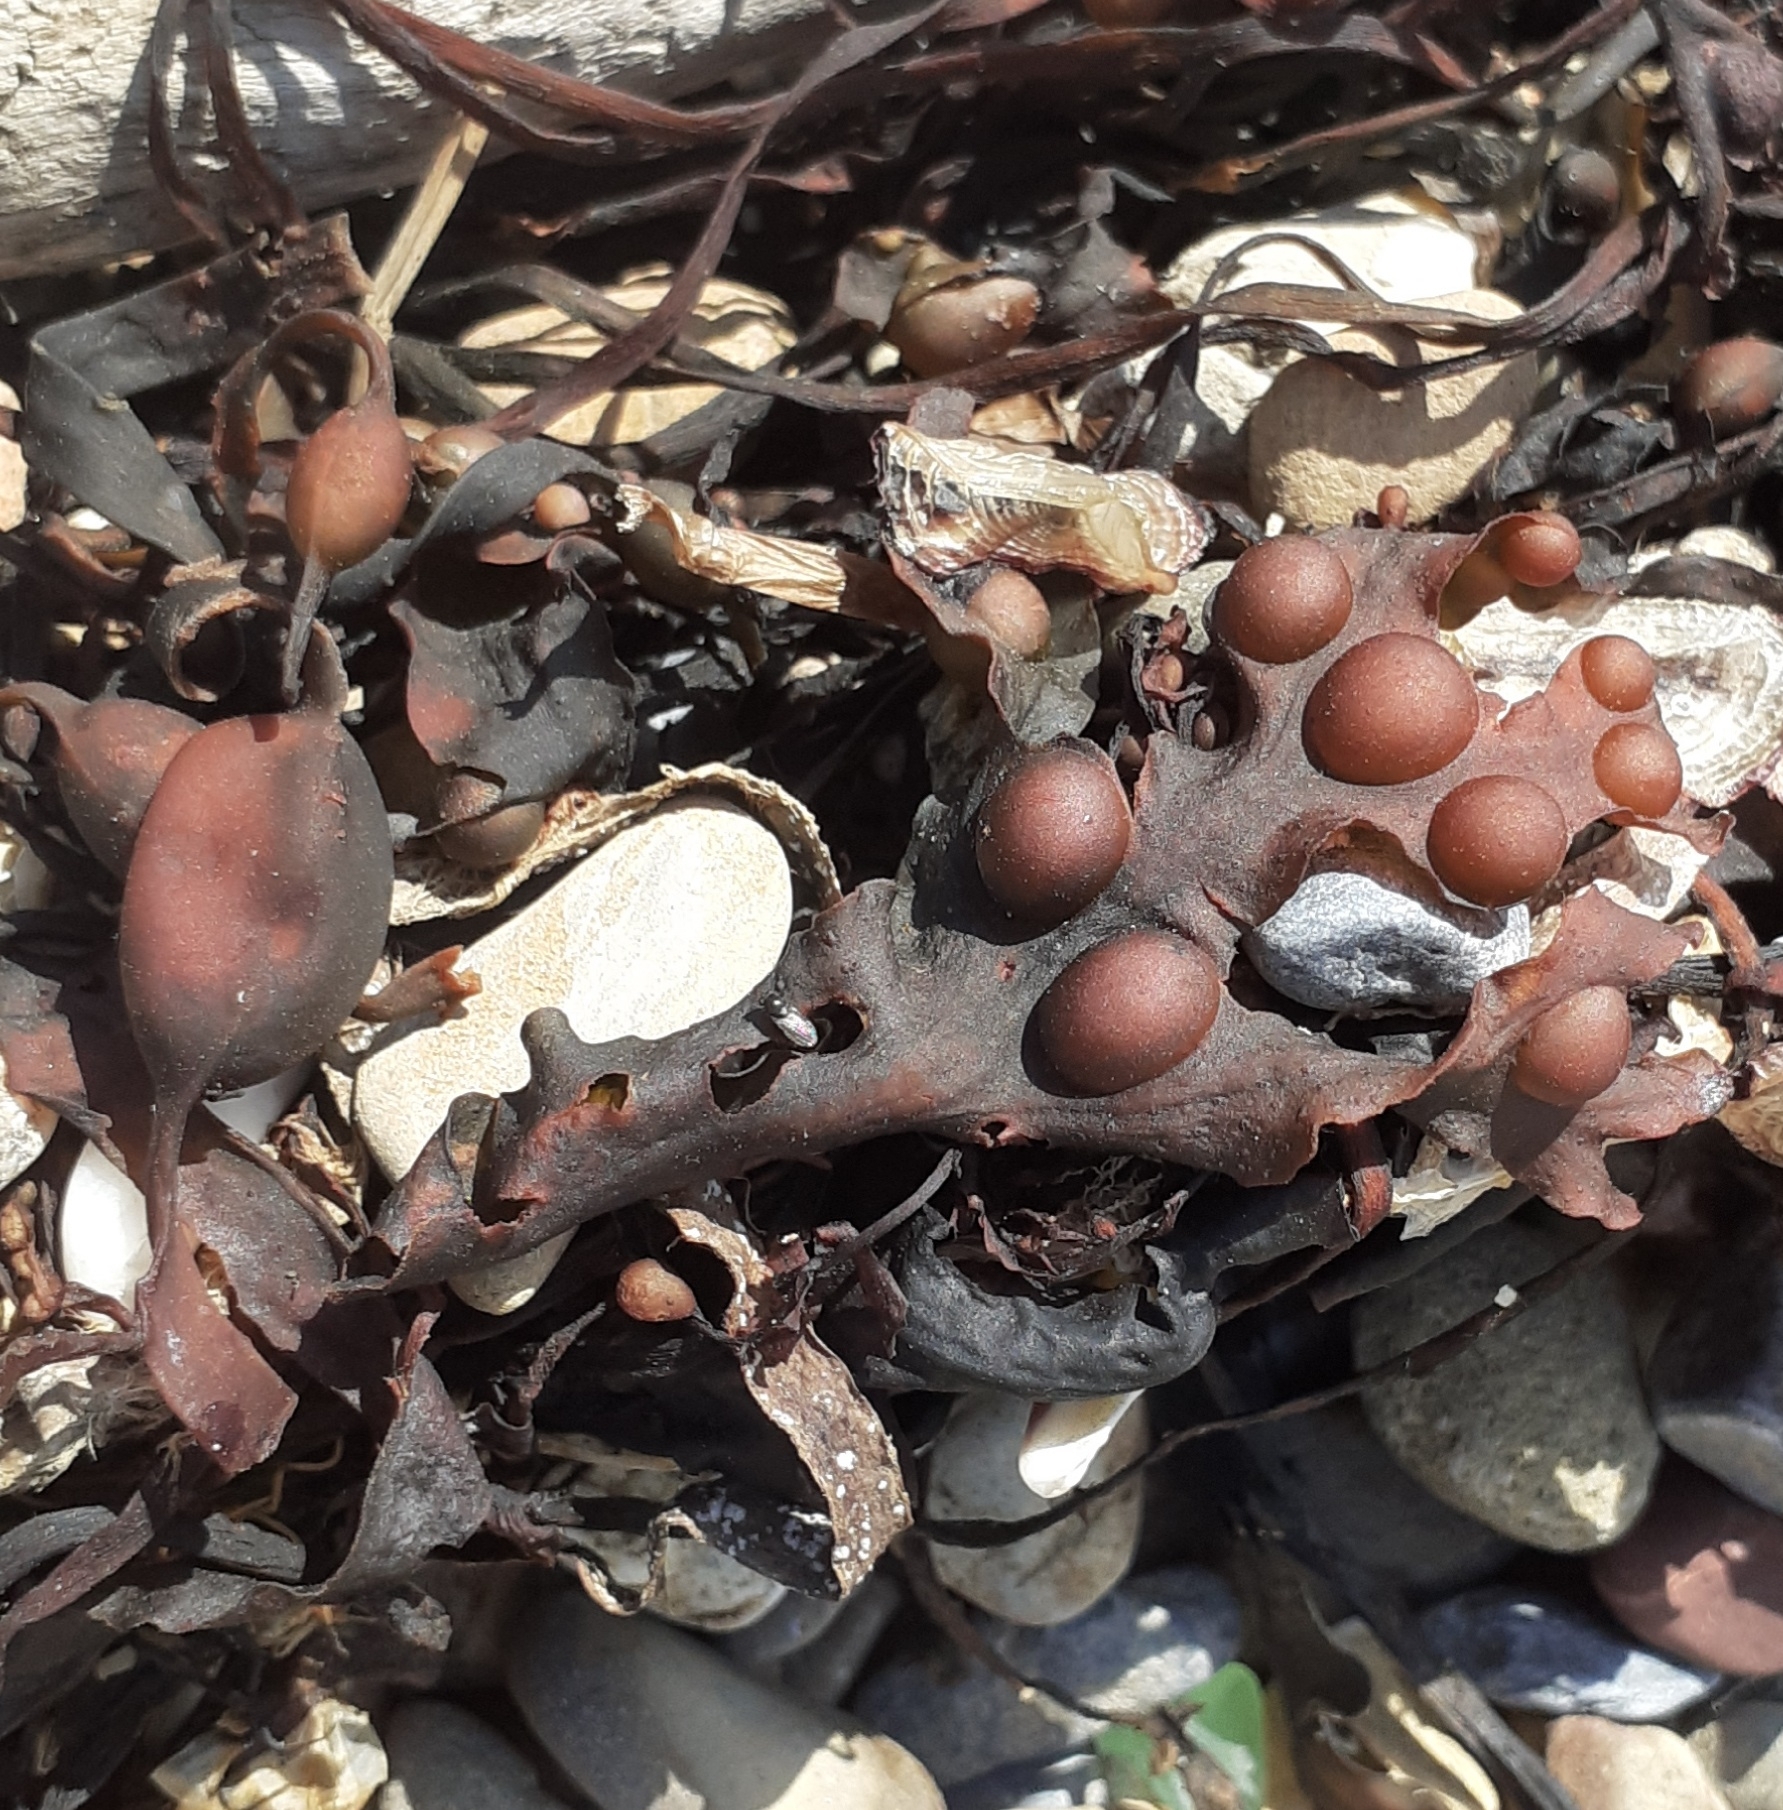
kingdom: Chromista
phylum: Ochrophyta
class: Phaeophyceae
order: Fucales
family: Fucaceae
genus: Fucus
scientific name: Fucus vesiculosus
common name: Bladder wrack
